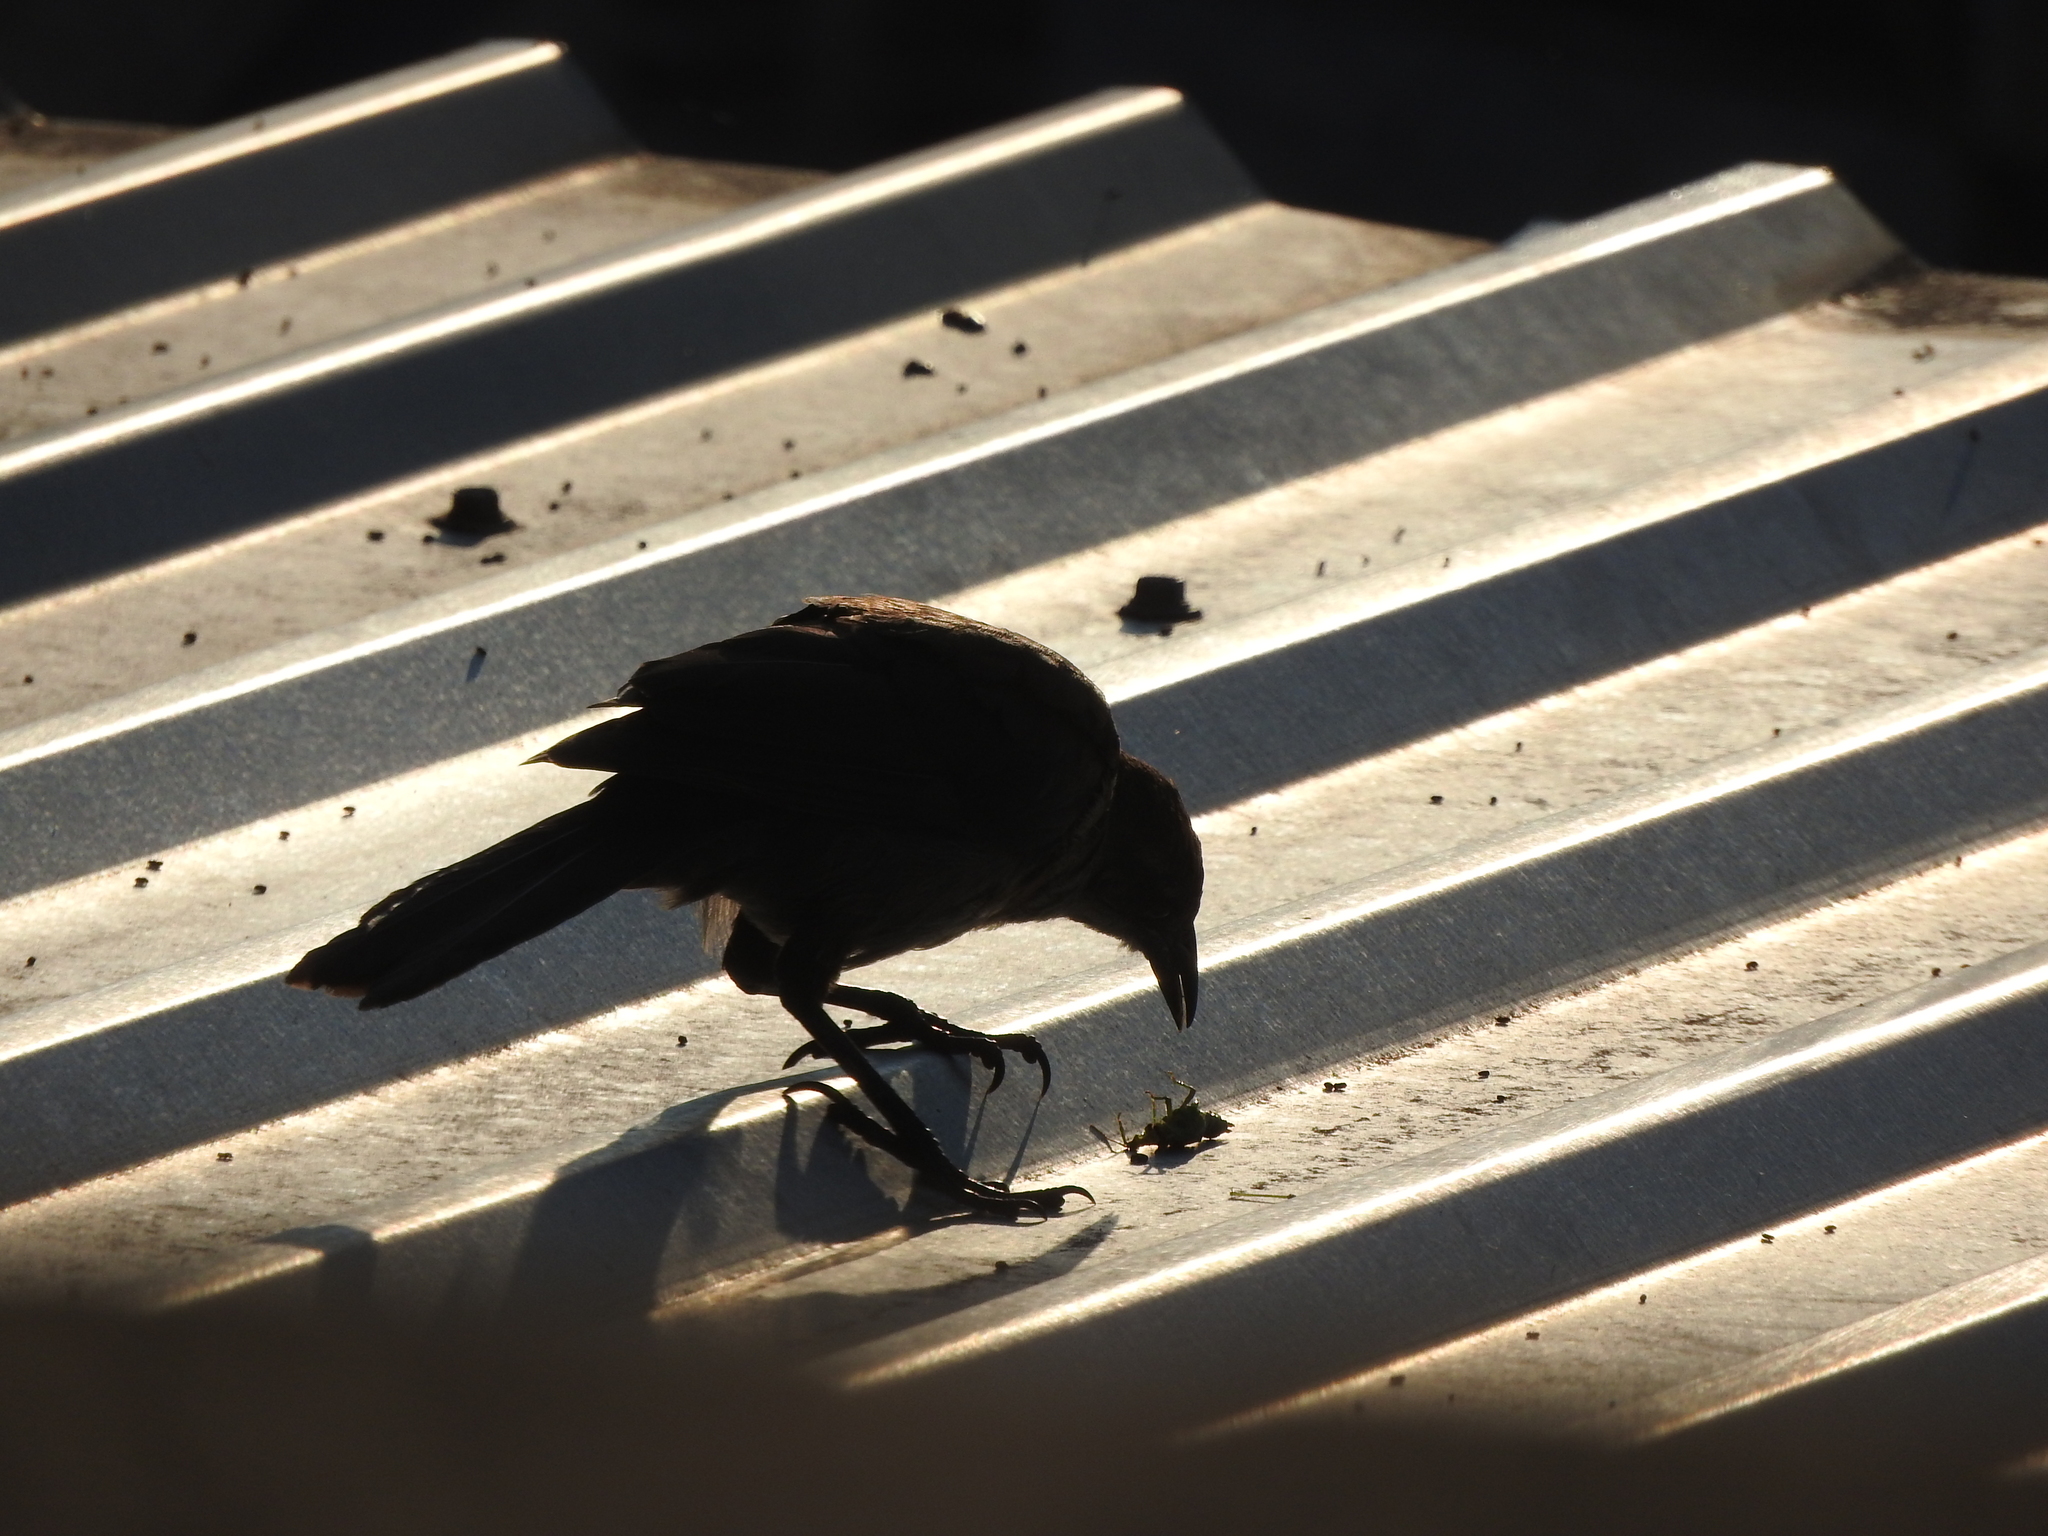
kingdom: Animalia
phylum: Chordata
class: Aves
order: Passeriformes
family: Icteridae
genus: Quiscalus
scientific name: Quiscalus mexicanus
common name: Great-tailed grackle
